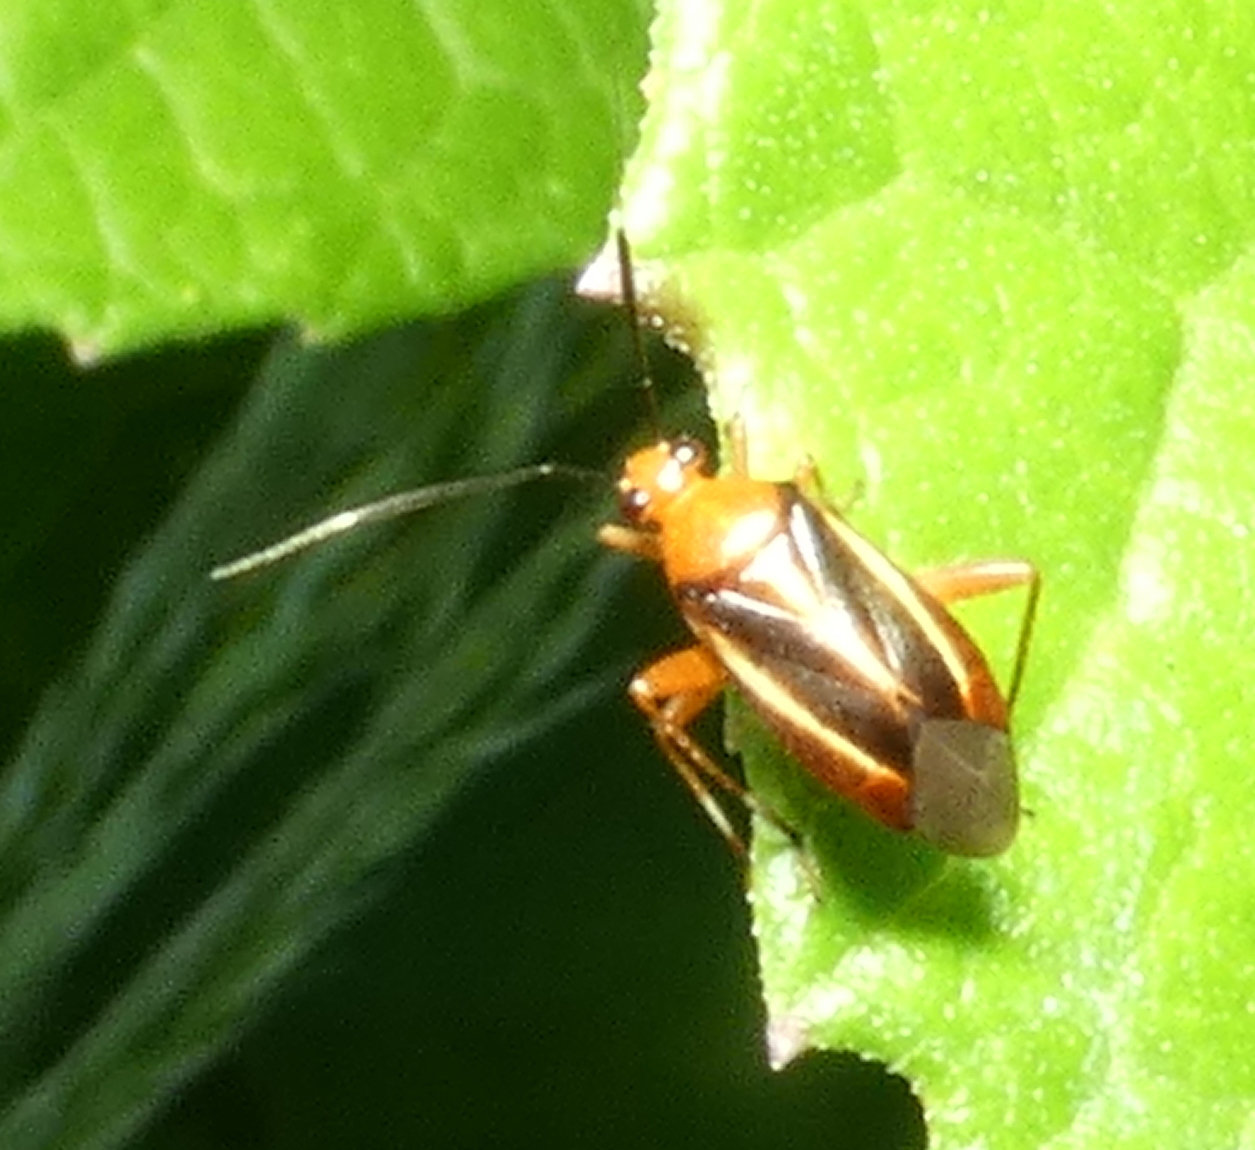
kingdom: Animalia
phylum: Arthropoda
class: Insecta
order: Hemiptera
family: Miridae
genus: Horciasinus
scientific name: Horciasinus signoreti
